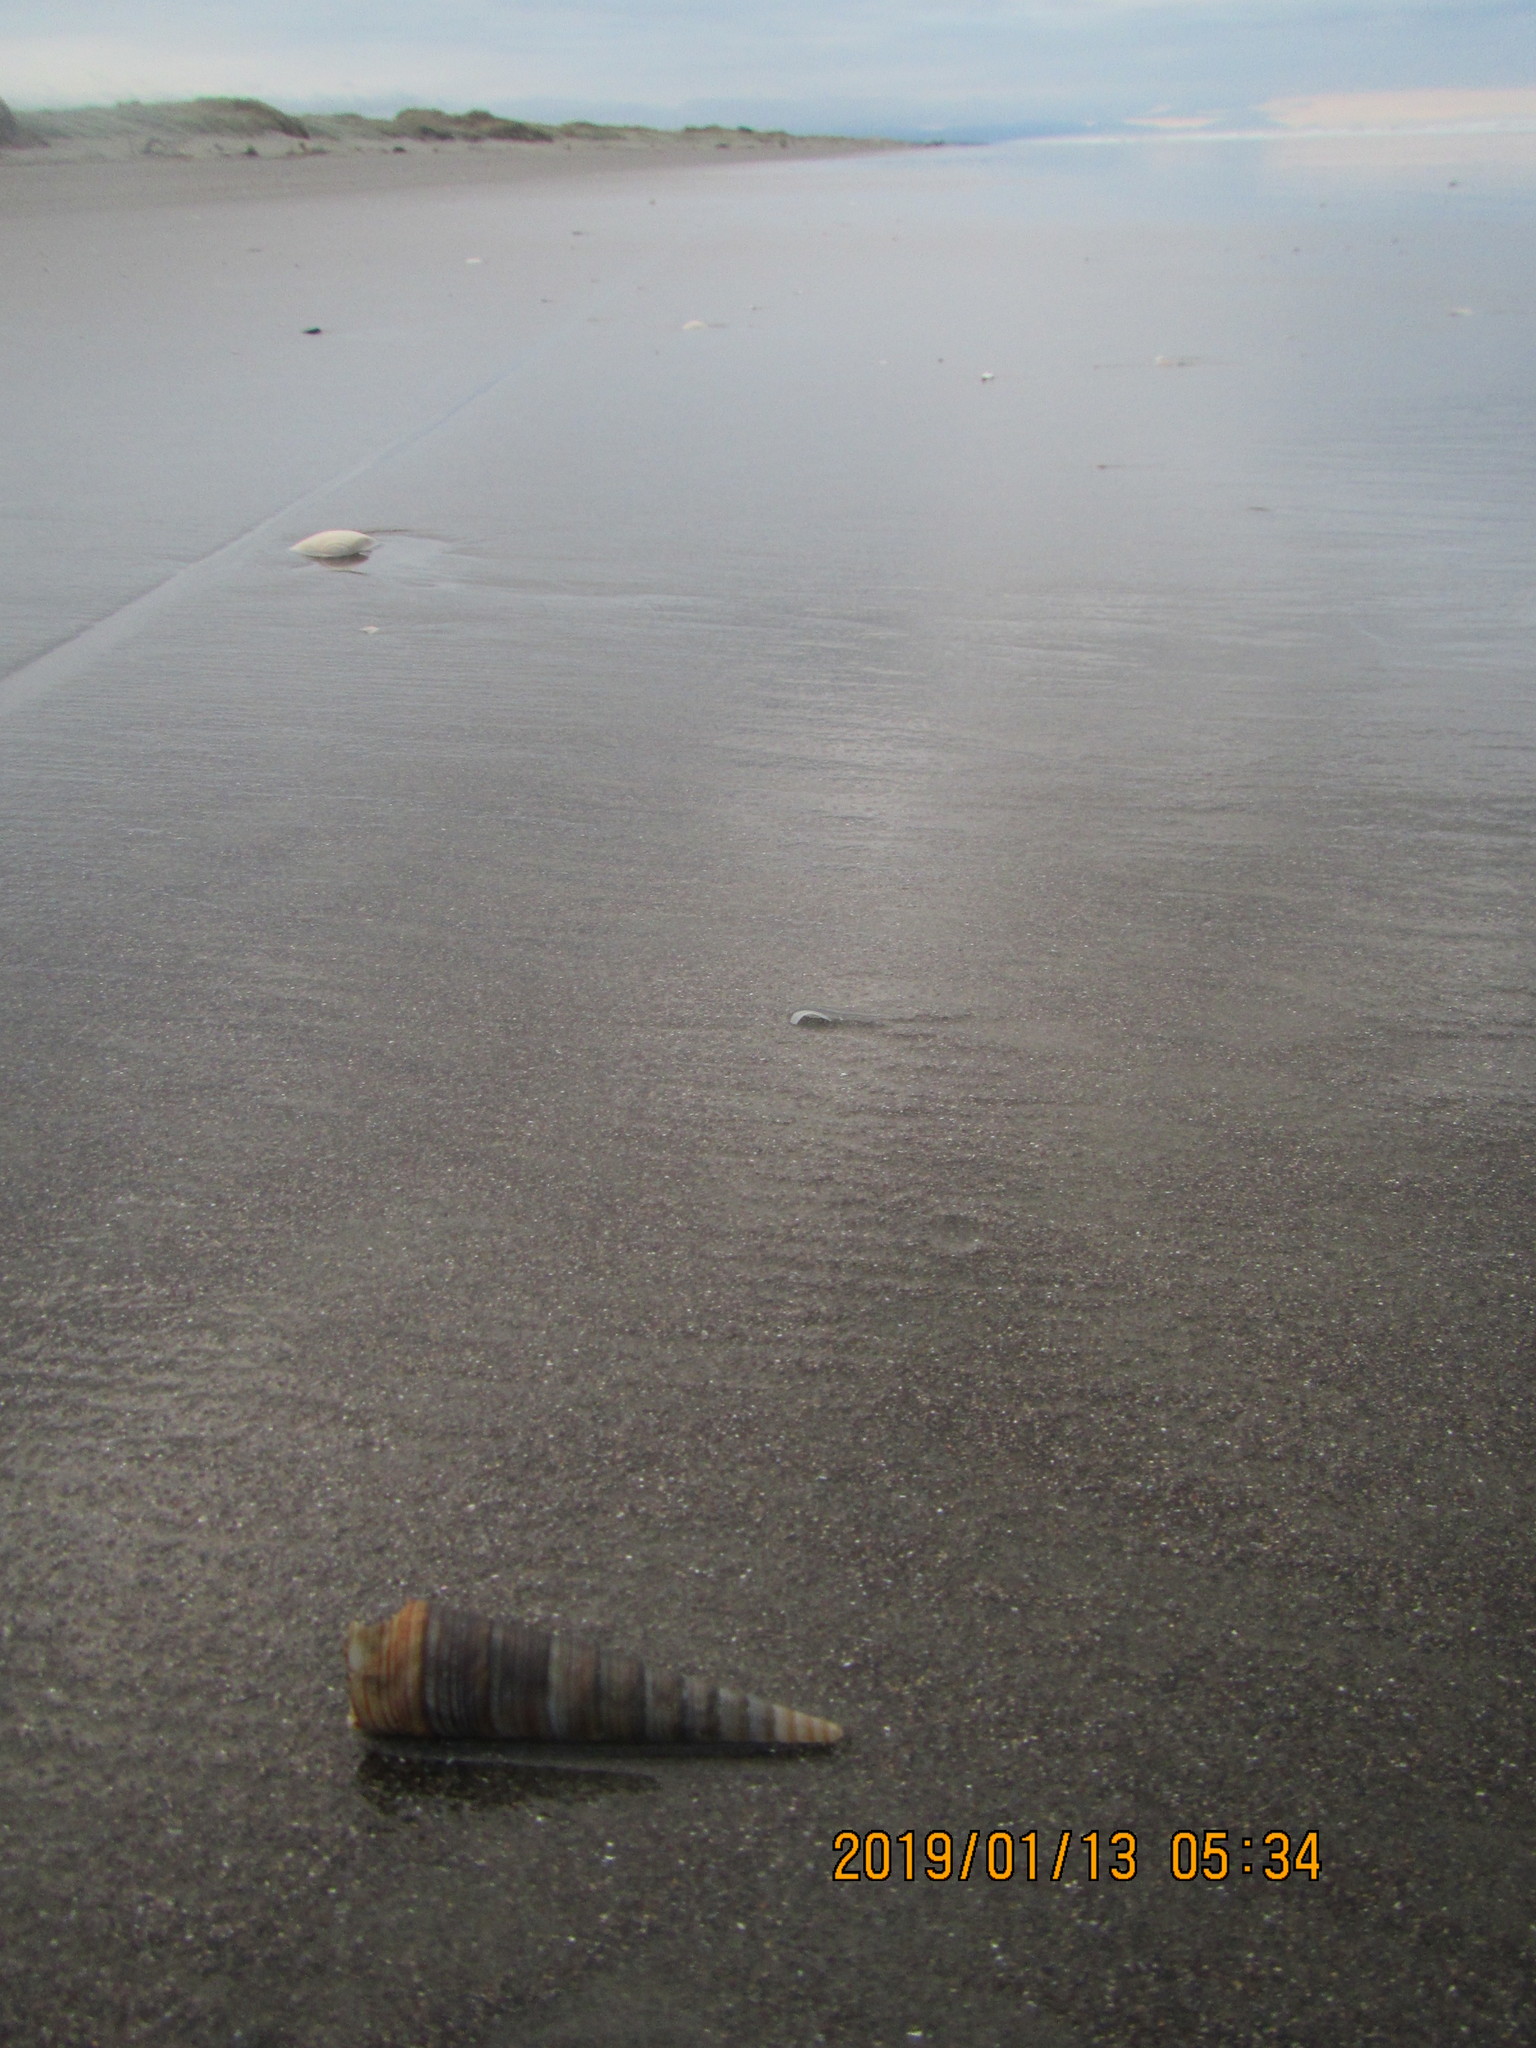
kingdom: Animalia
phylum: Mollusca
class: Gastropoda
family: Turritellidae
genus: Zeacolpus
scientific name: Zeacolpus vittatus
